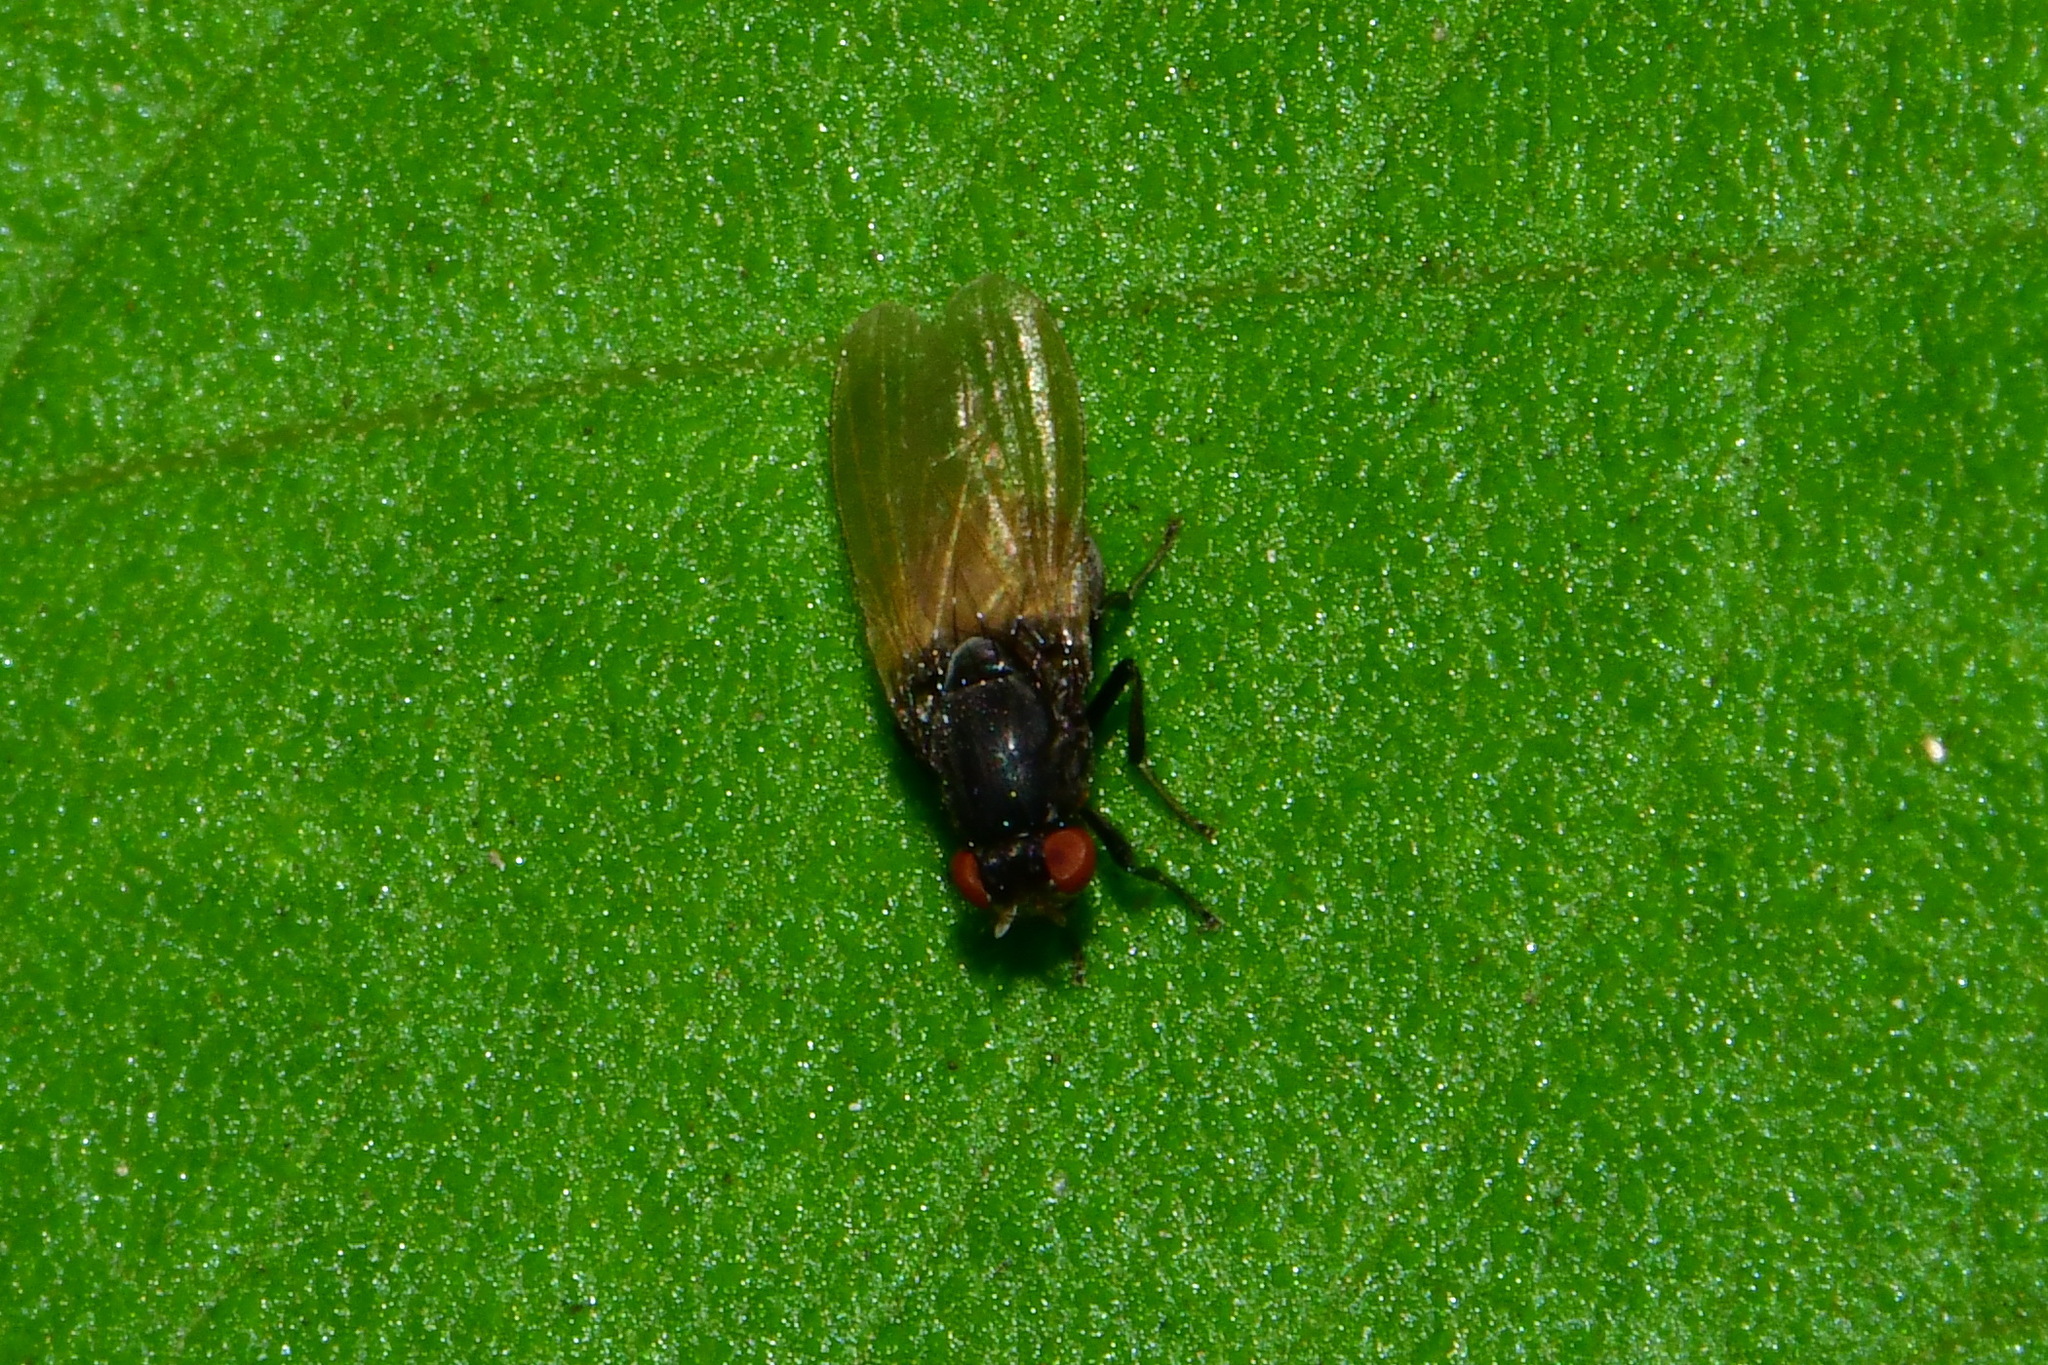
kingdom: Animalia
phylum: Arthropoda
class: Insecta
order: Diptera
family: Lauxaniidae
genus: Minettia
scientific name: Minettia longipennis
